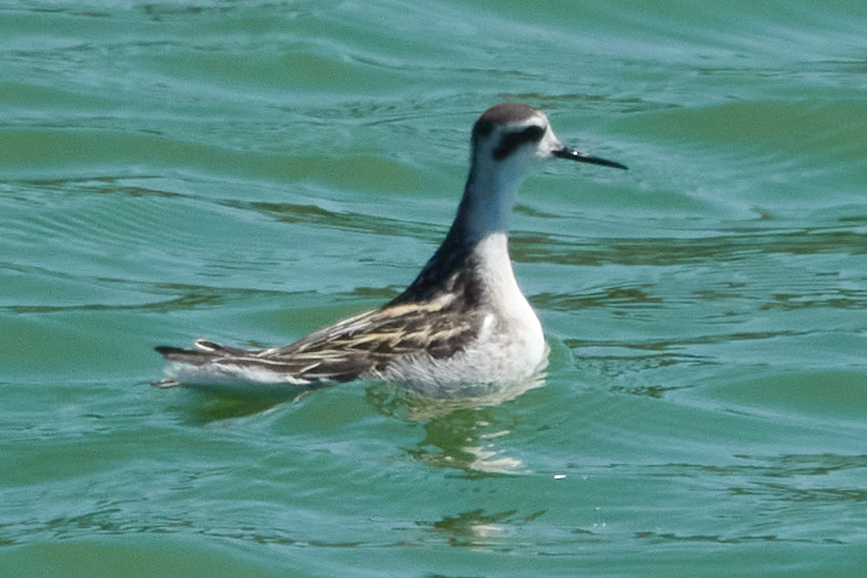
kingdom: Animalia
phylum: Chordata
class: Aves
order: Charadriiformes
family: Scolopacidae
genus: Phalaropus
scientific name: Phalaropus lobatus
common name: Red-necked phalarope
